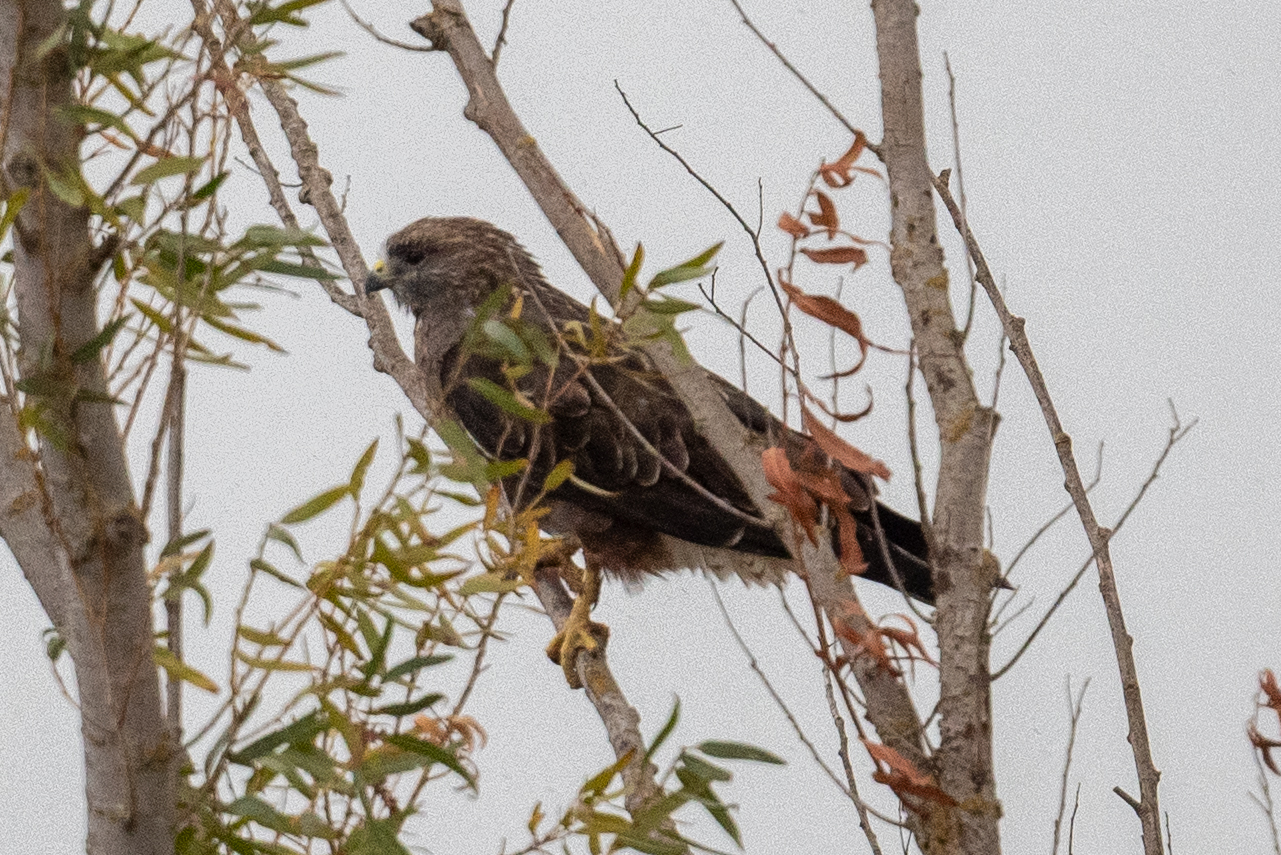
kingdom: Animalia
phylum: Chordata
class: Aves
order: Accipitriformes
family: Accipitridae
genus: Buteo
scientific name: Buteo swainsoni
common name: Swainson's hawk
